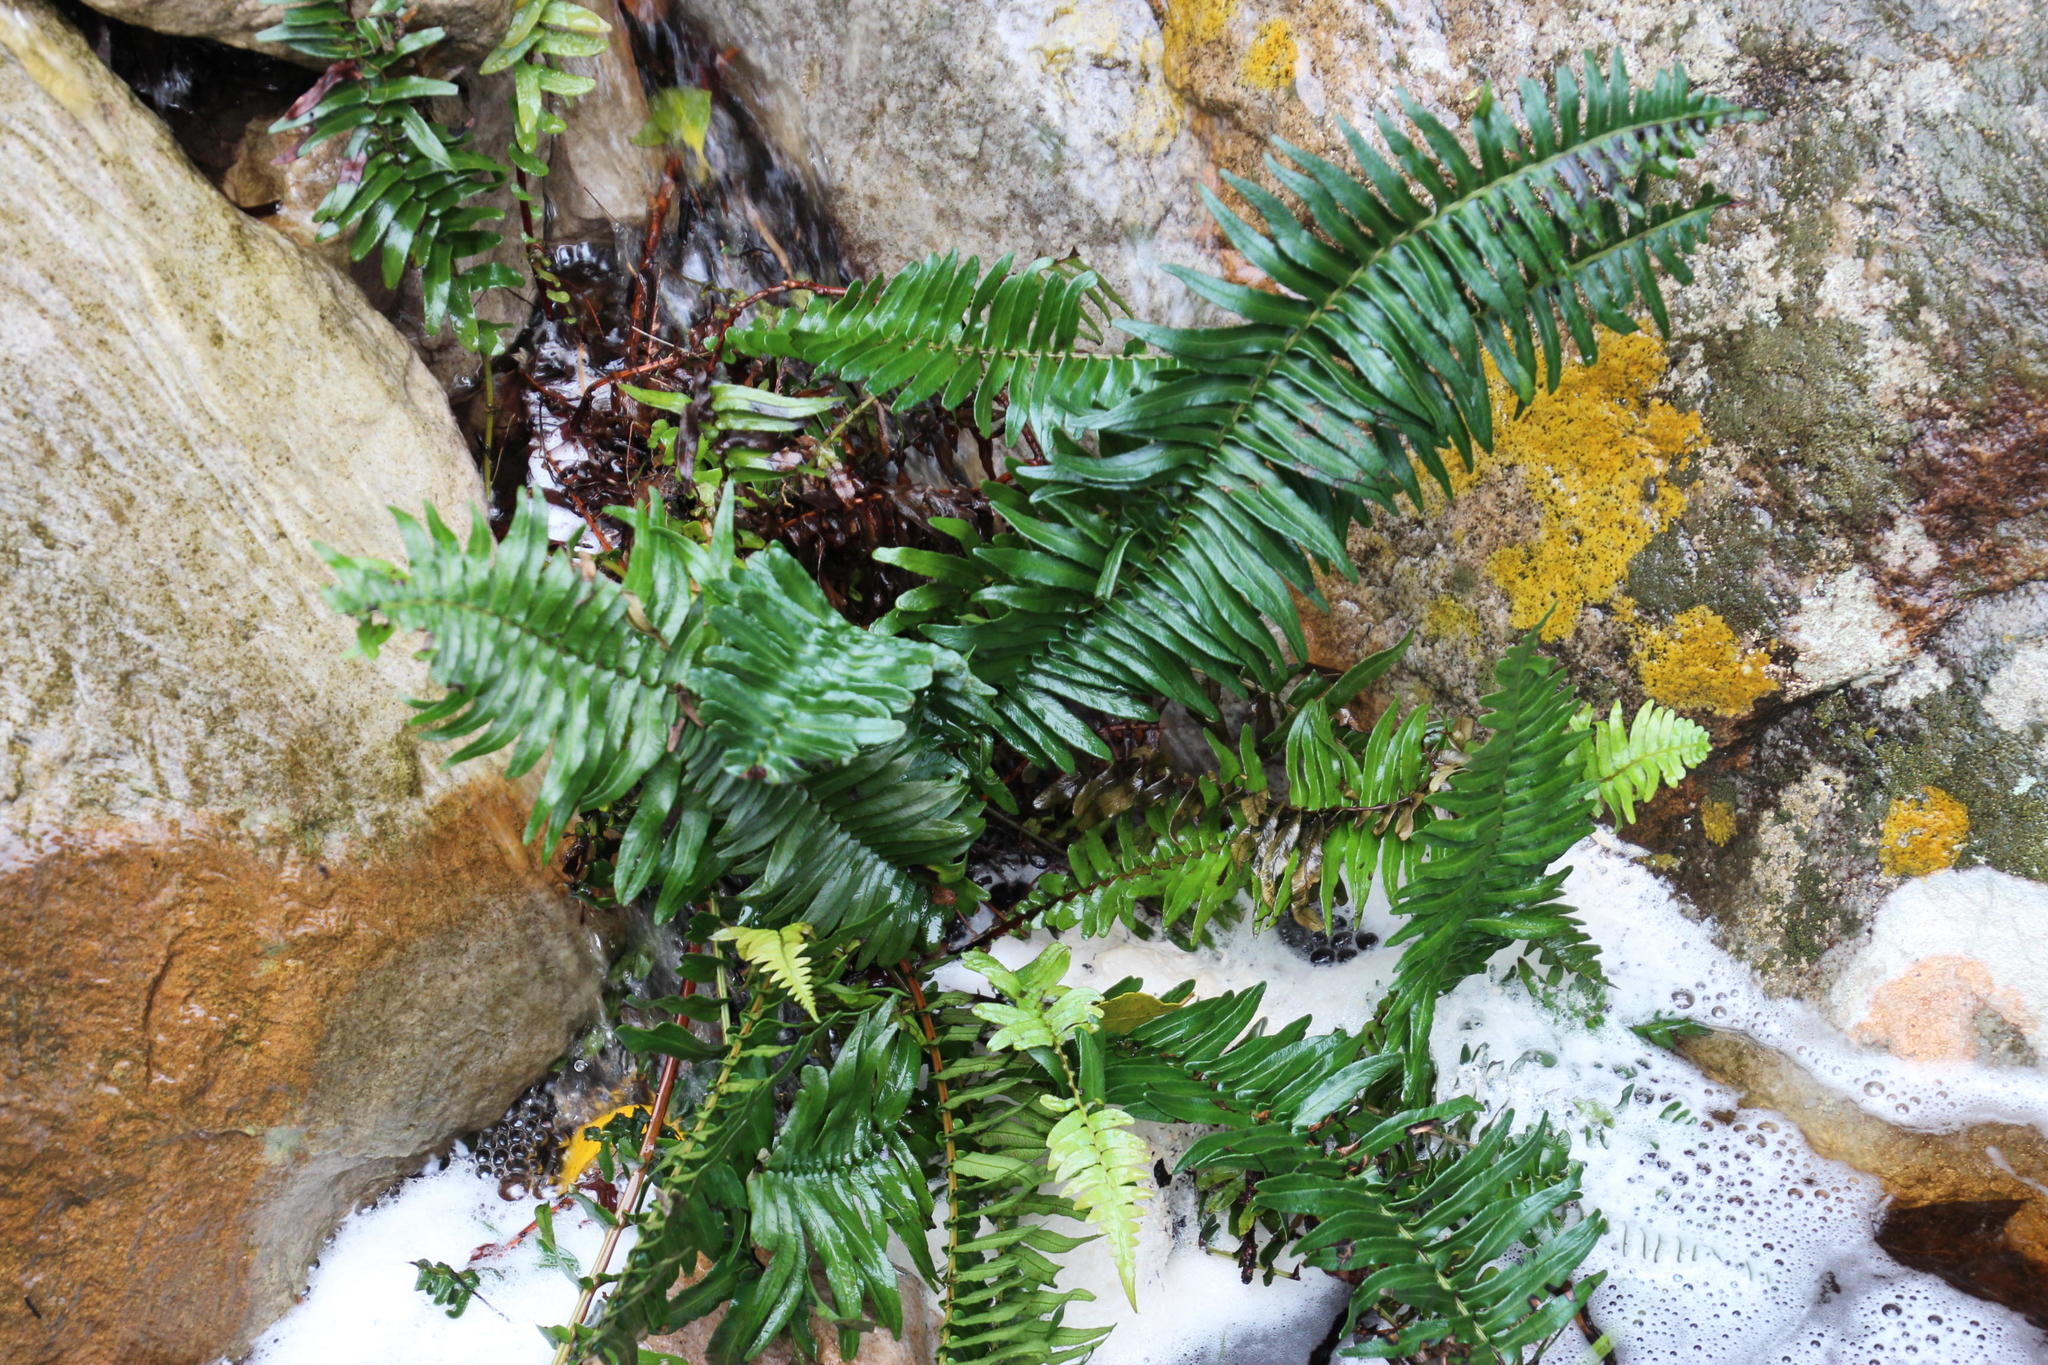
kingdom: Plantae
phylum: Tracheophyta
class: Polypodiopsida
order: Polypodiales
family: Blechnaceae
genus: Blechnum
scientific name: Blechnum punctulatum
